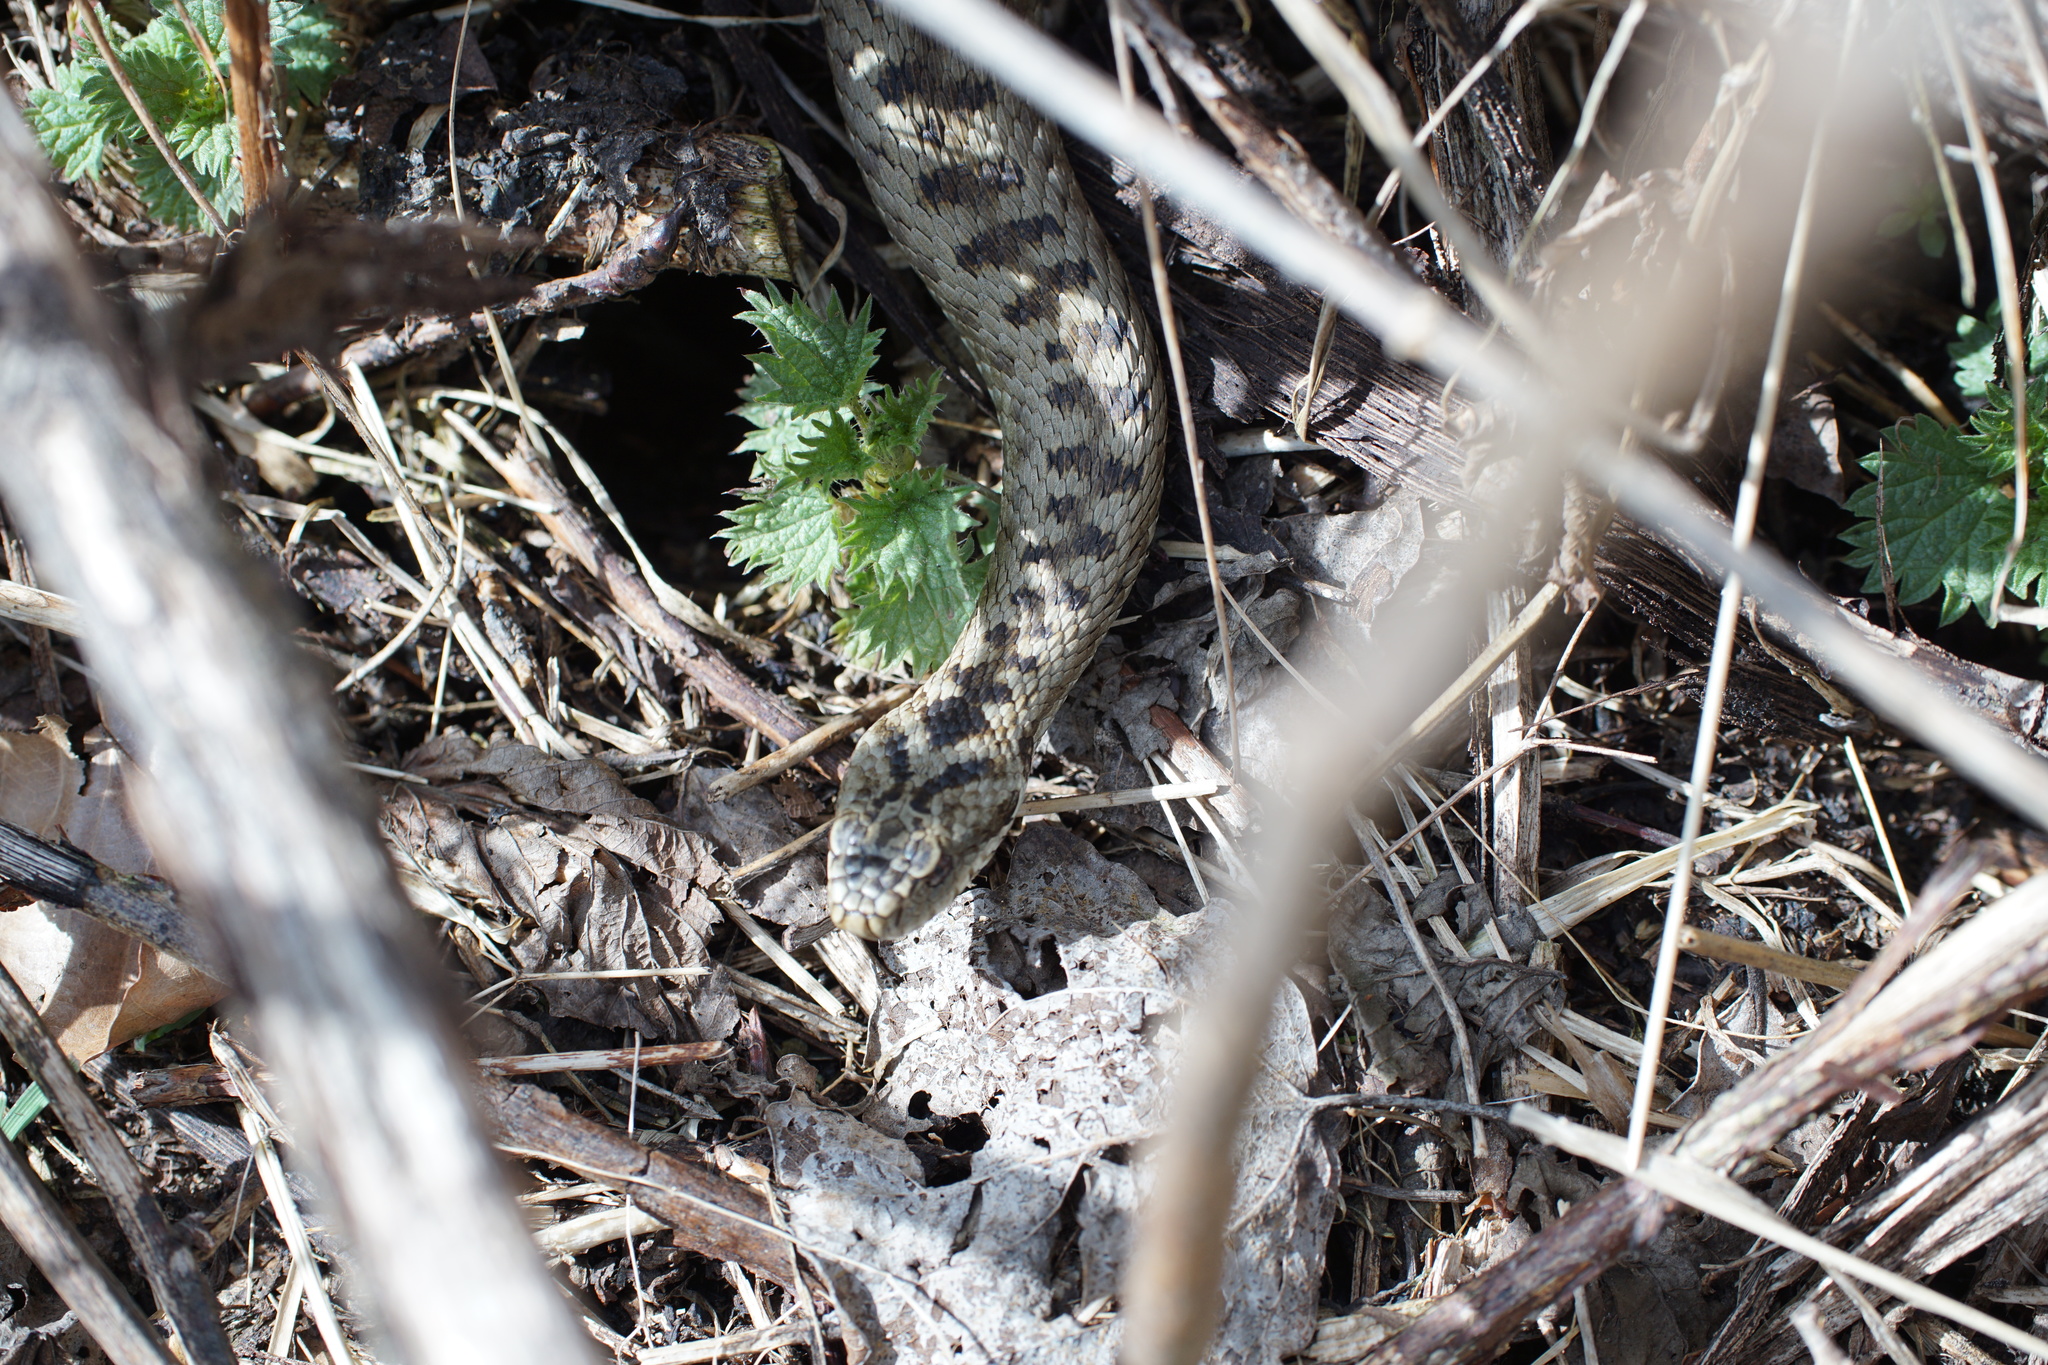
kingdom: Animalia
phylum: Chordata
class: Squamata
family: Viperidae
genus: Vipera
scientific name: Vipera berus
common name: Adder
